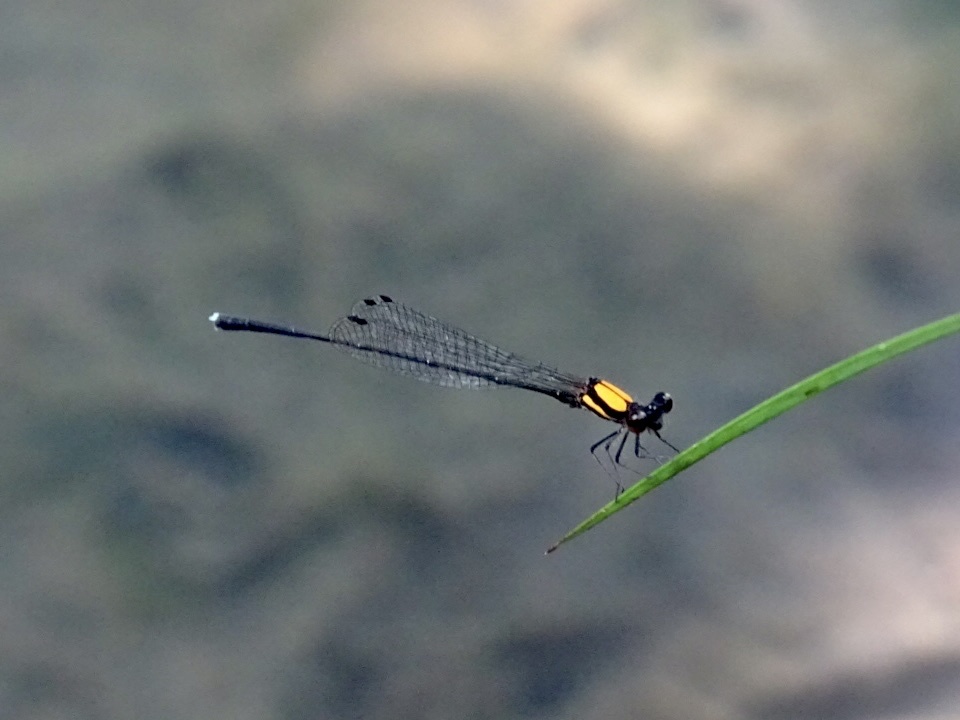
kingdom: Animalia
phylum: Arthropoda
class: Insecta
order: Odonata
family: Platycnemididae
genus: Prodasineura
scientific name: Prodasineura croconota
